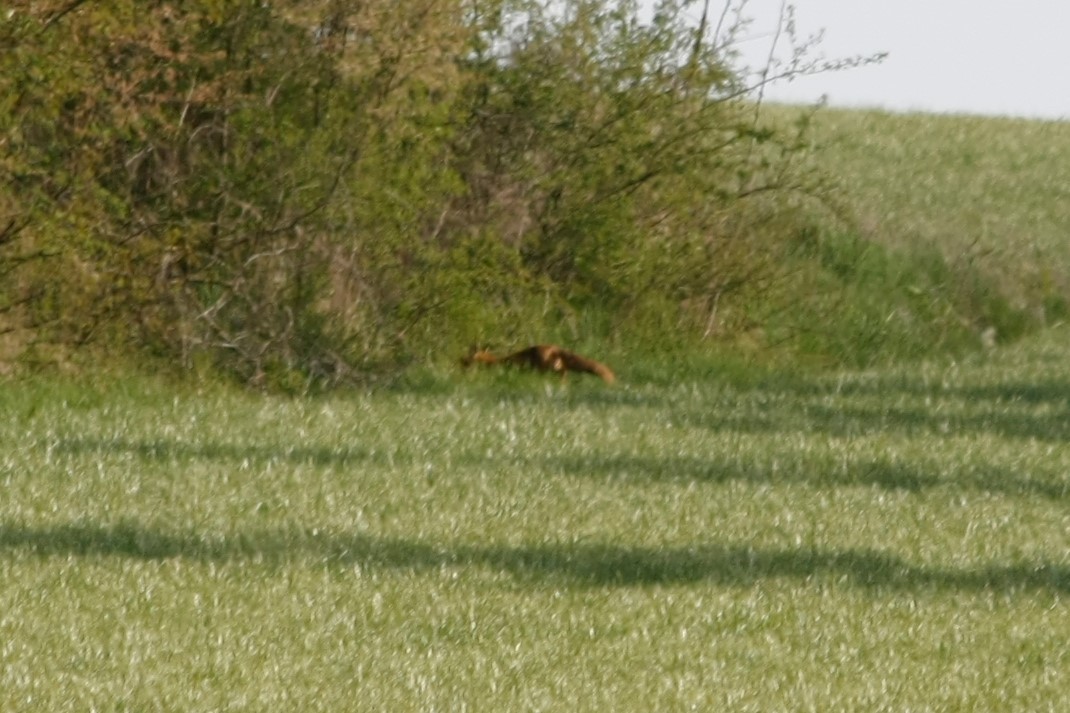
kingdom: Animalia
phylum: Chordata
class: Mammalia
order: Carnivora
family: Canidae
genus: Vulpes
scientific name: Vulpes vulpes
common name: Red fox
